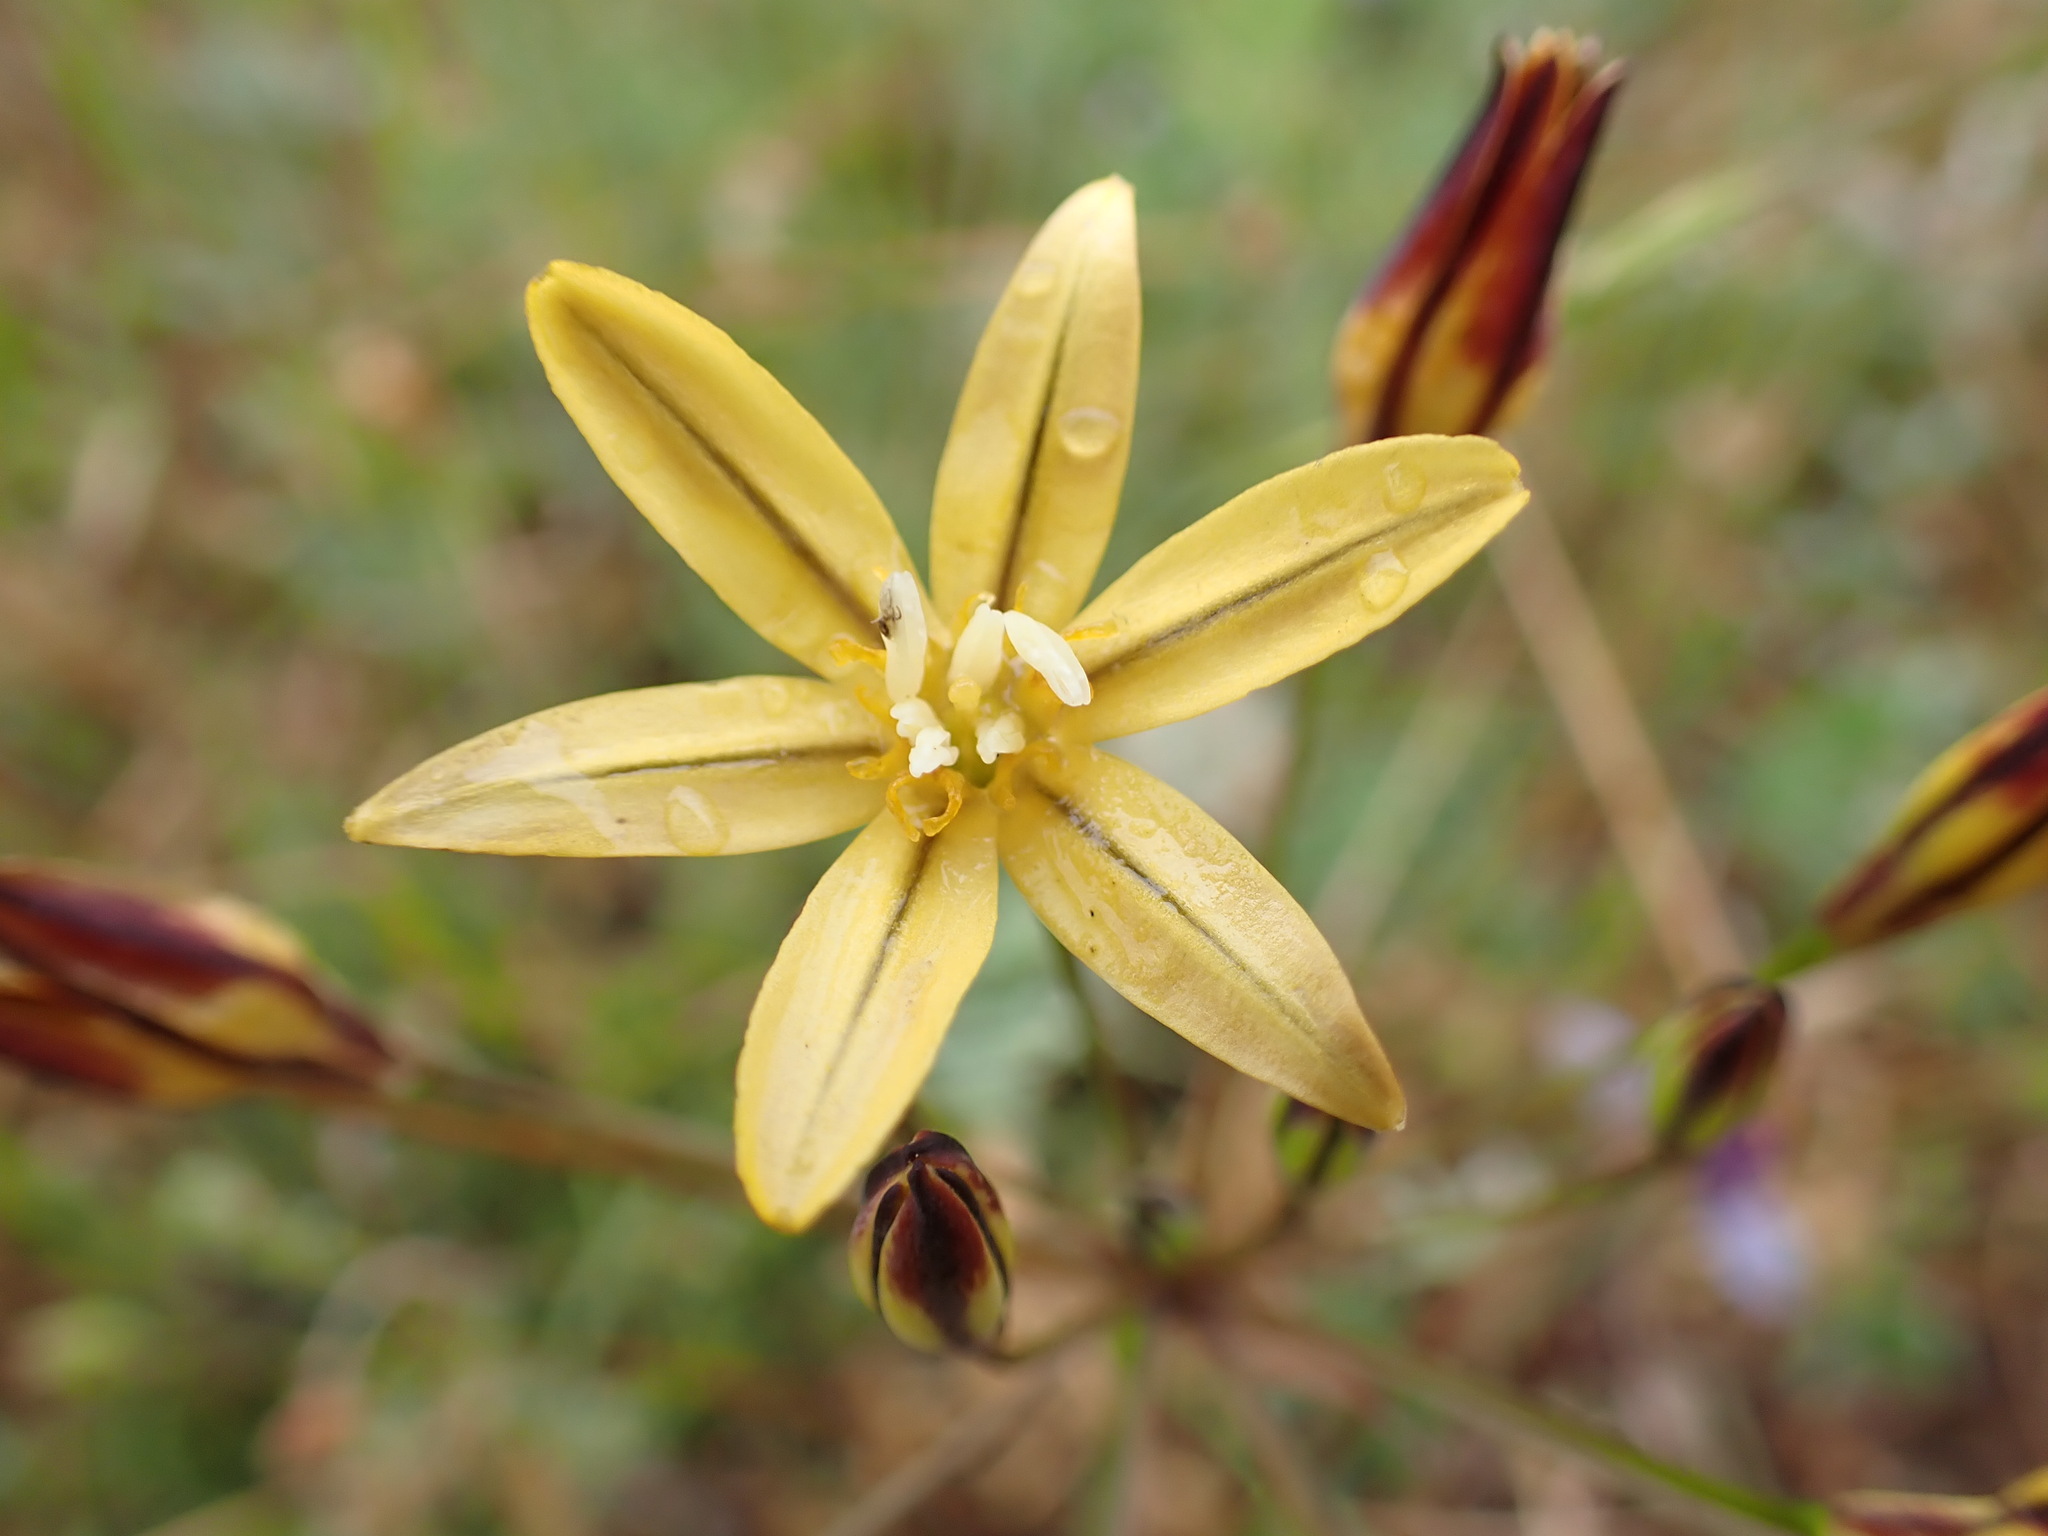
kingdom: Plantae
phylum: Tracheophyta
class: Liliopsida
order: Asparagales
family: Asparagaceae
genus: Triteleia
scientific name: Triteleia ixioides
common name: Yellow-brodiaea
